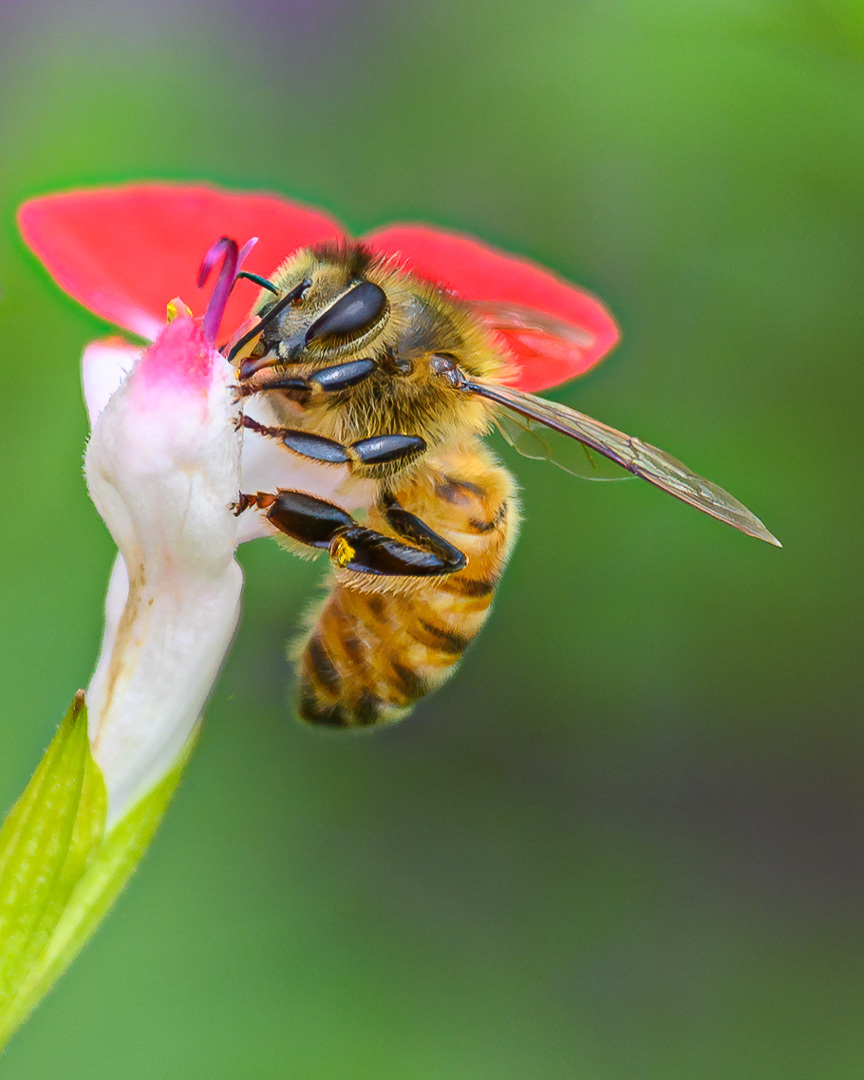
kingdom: Animalia
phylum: Arthropoda
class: Insecta
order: Hymenoptera
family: Apidae
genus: Apis
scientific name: Apis mellifera
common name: Honey bee
